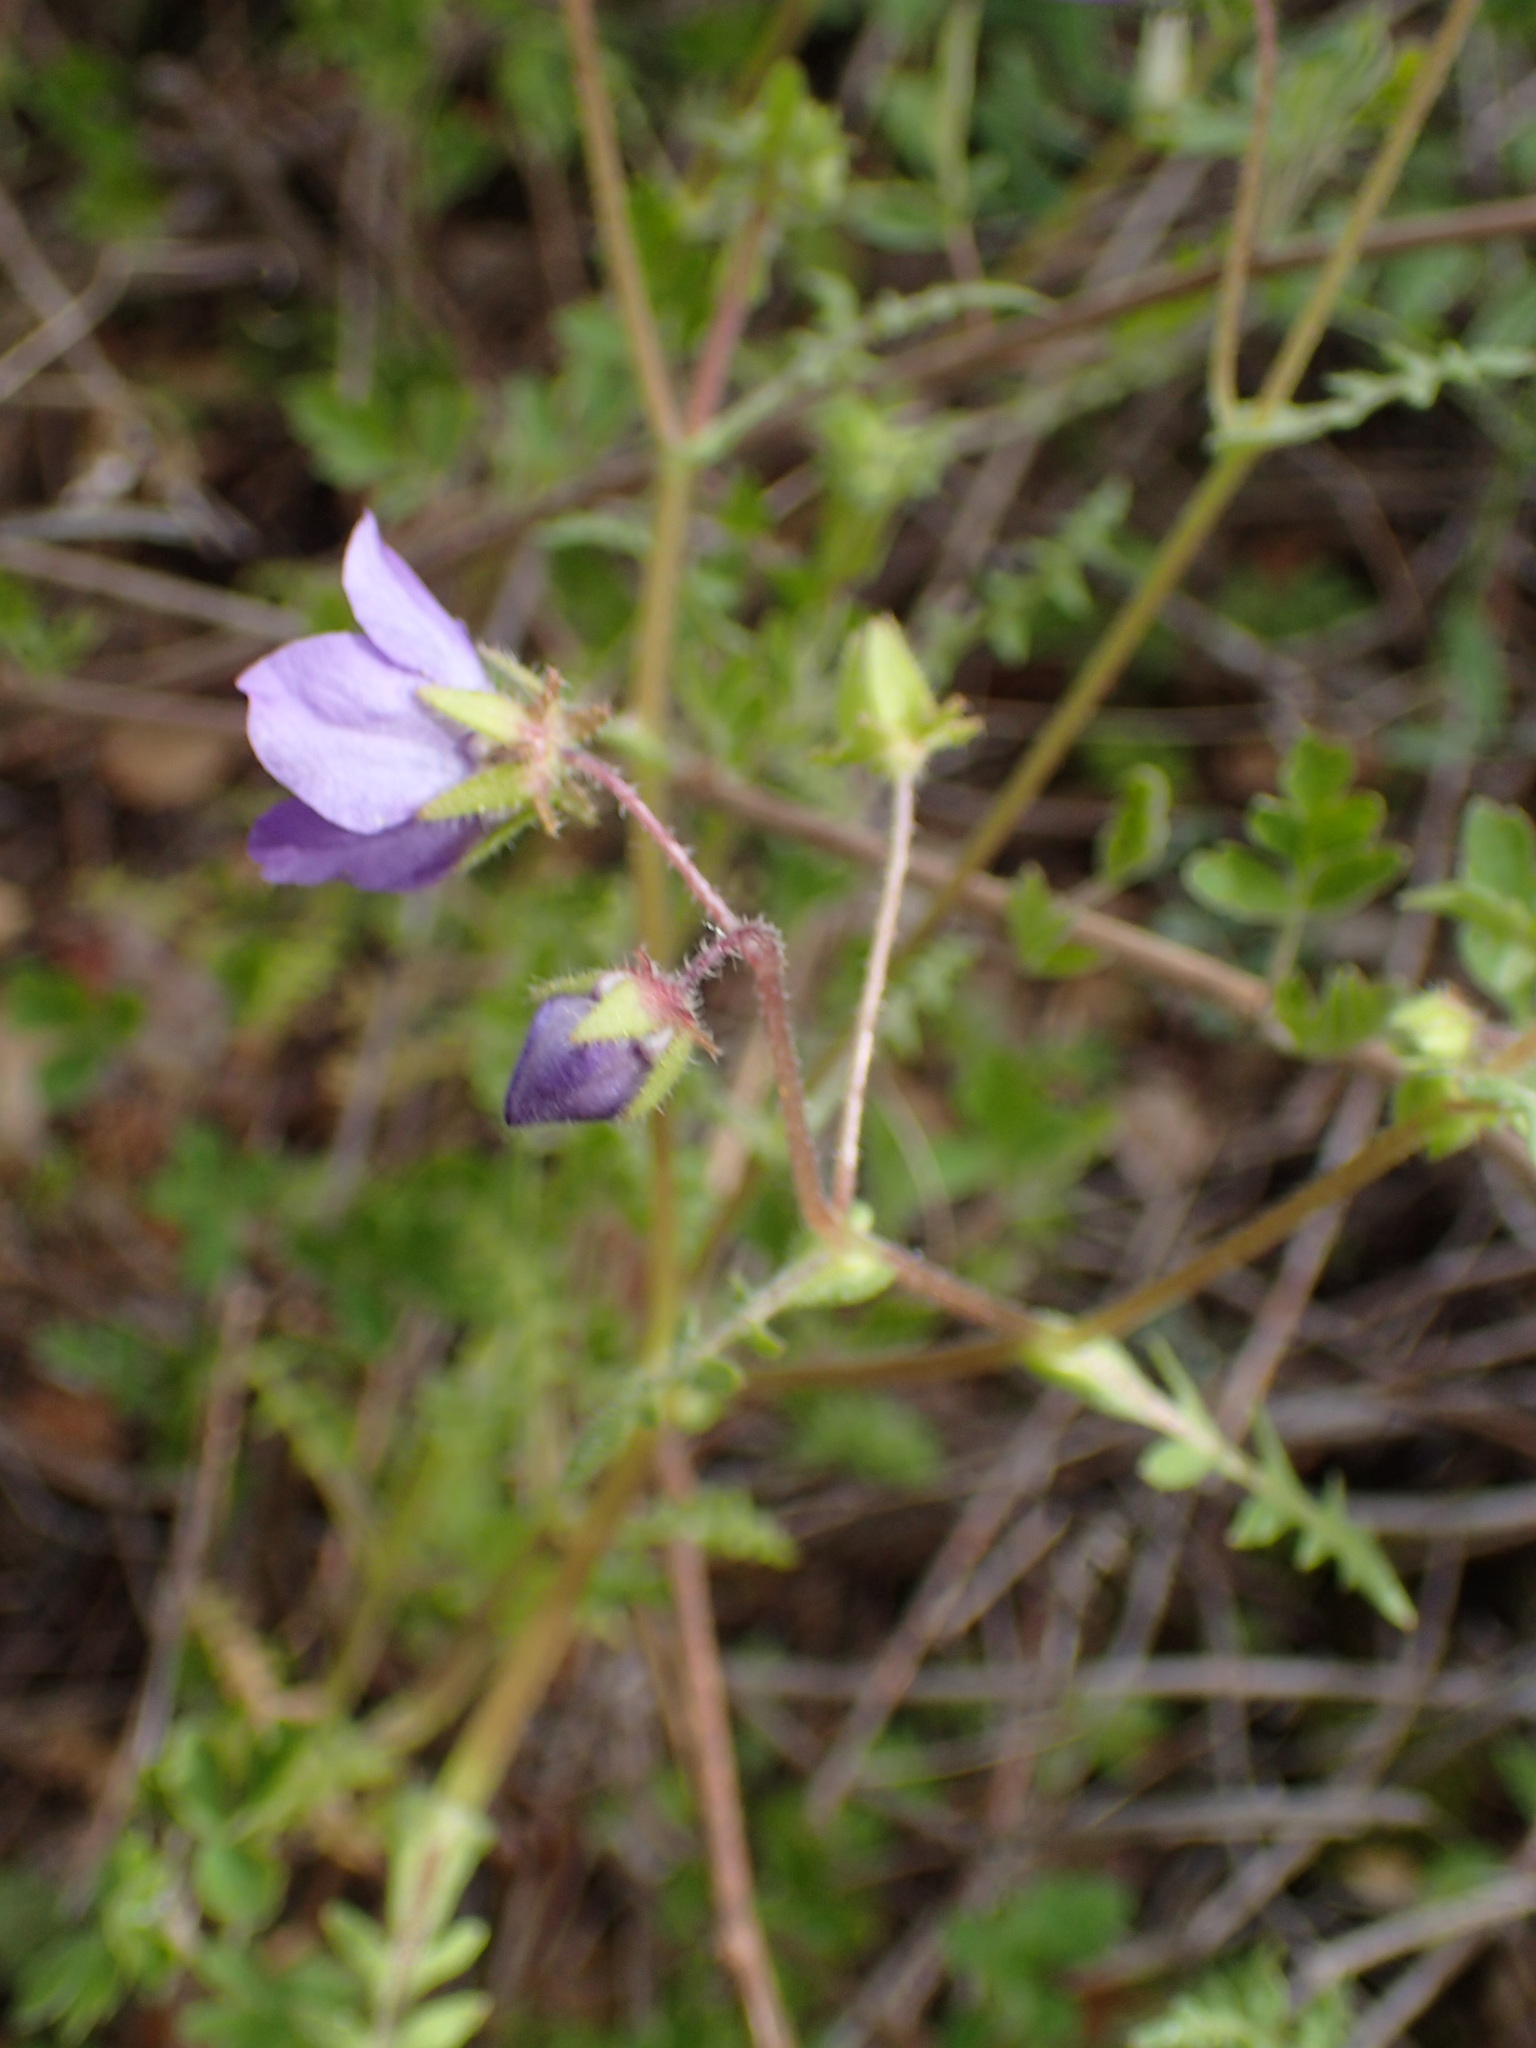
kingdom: Plantae
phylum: Tracheophyta
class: Magnoliopsida
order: Boraginales
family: Hydrophyllaceae
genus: Pholistoma
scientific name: Pholistoma auritum
